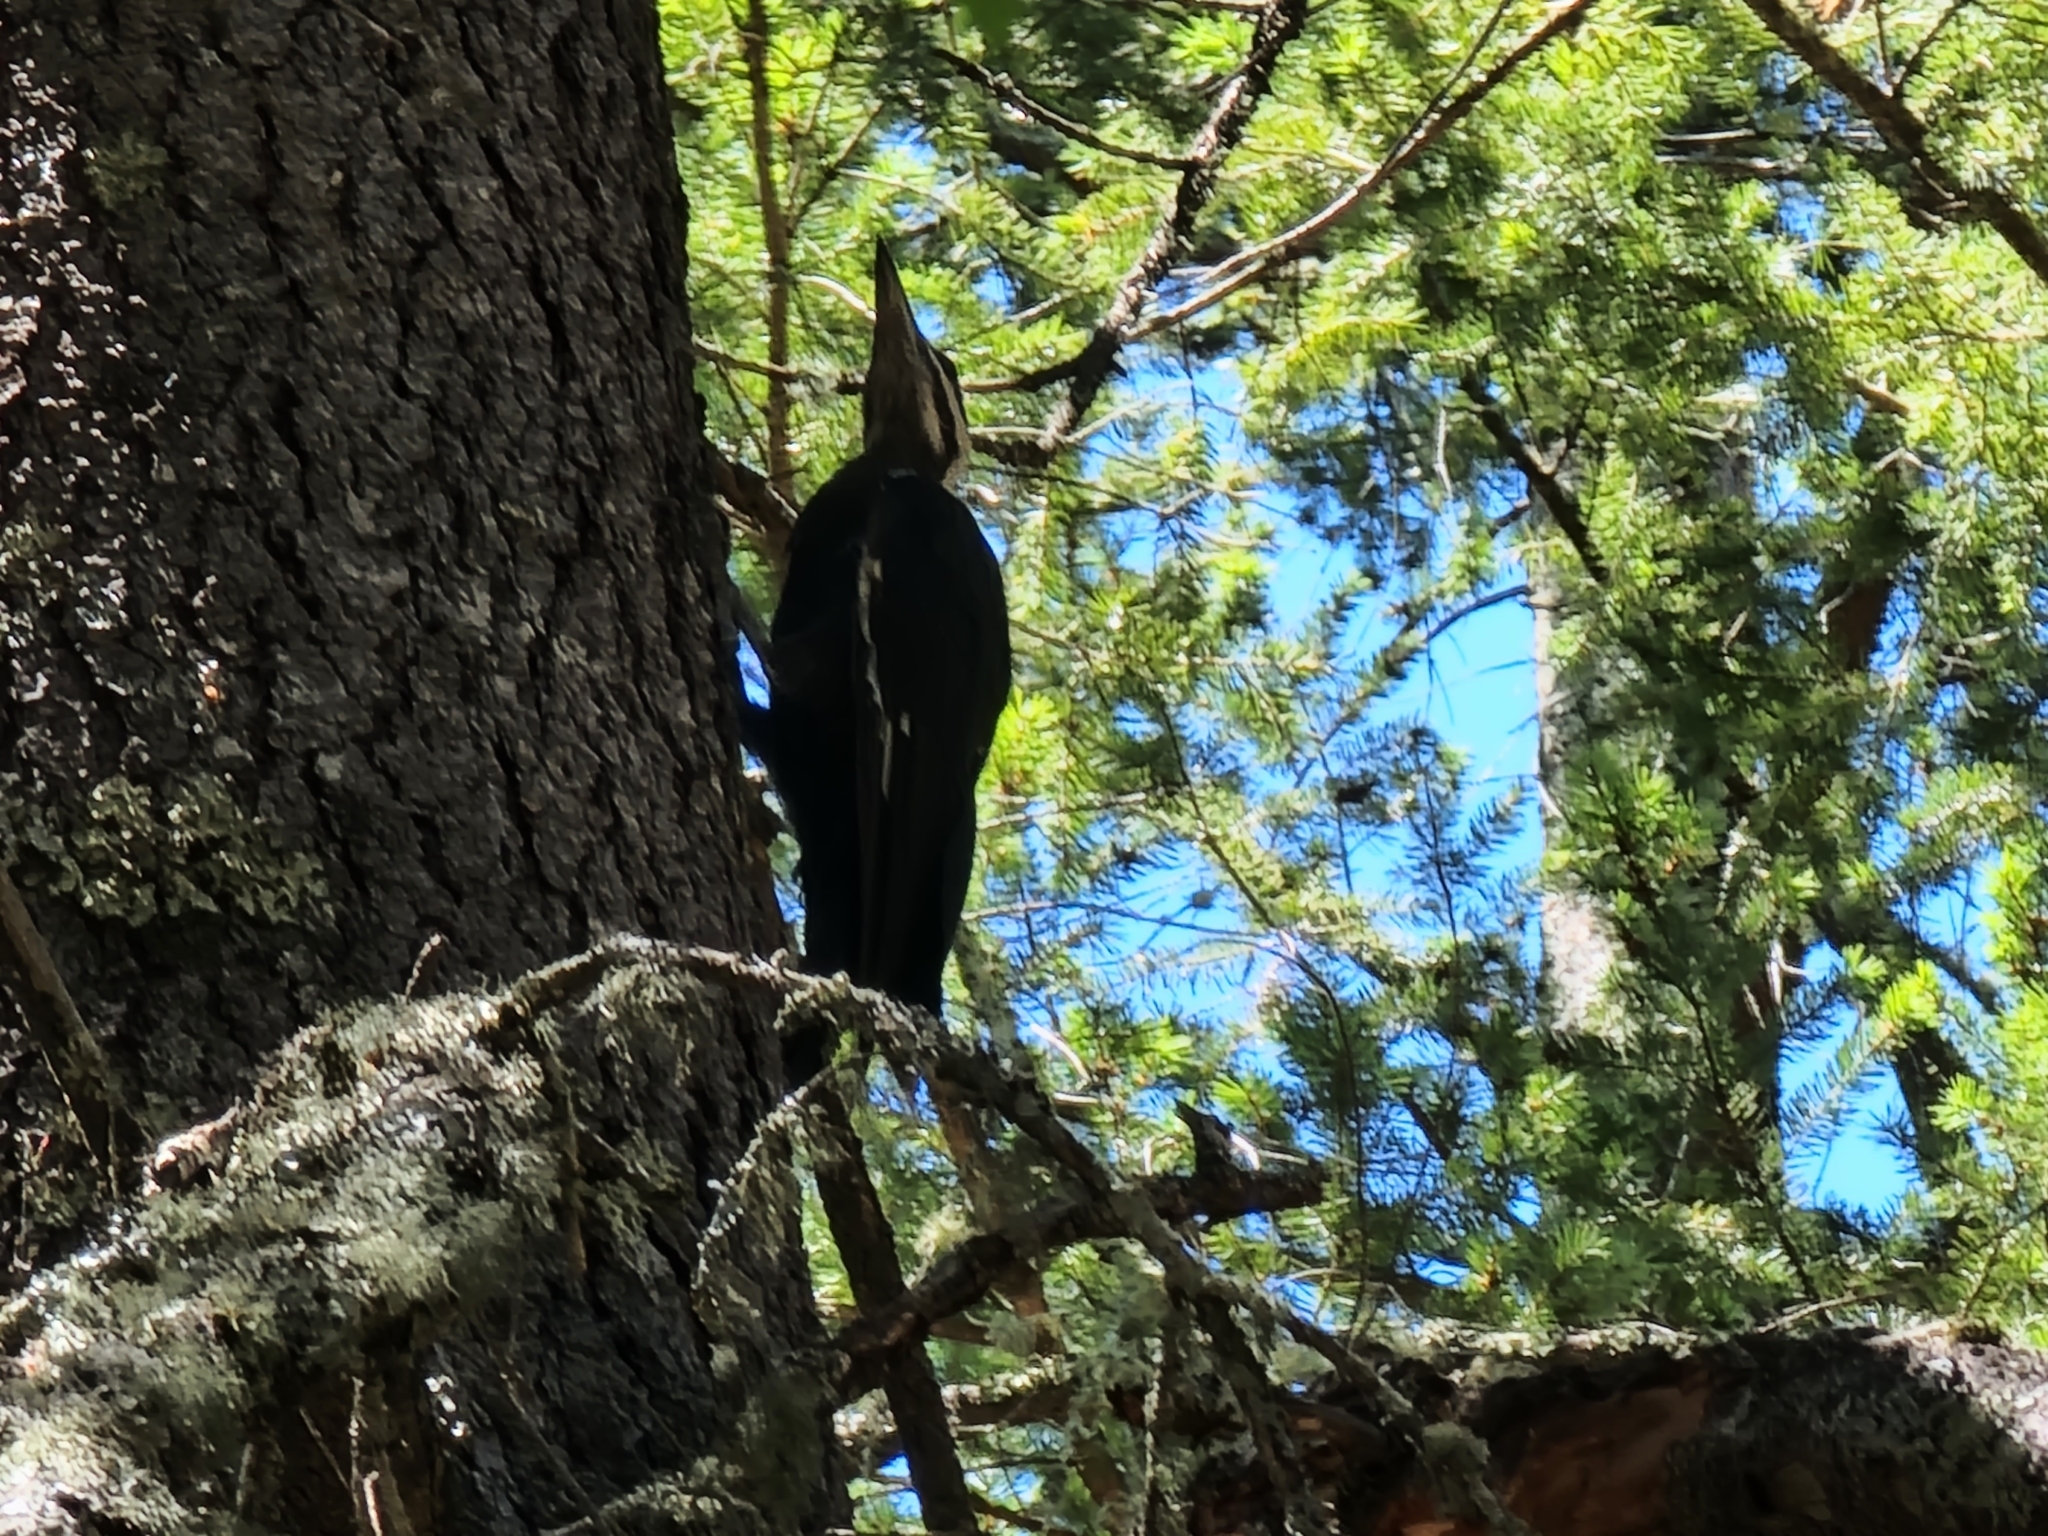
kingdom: Animalia
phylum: Chordata
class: Aves
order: Piciformes
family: Picidae
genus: Dryocopus
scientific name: Dryocopus pileatus
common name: Pileated woodpecker
